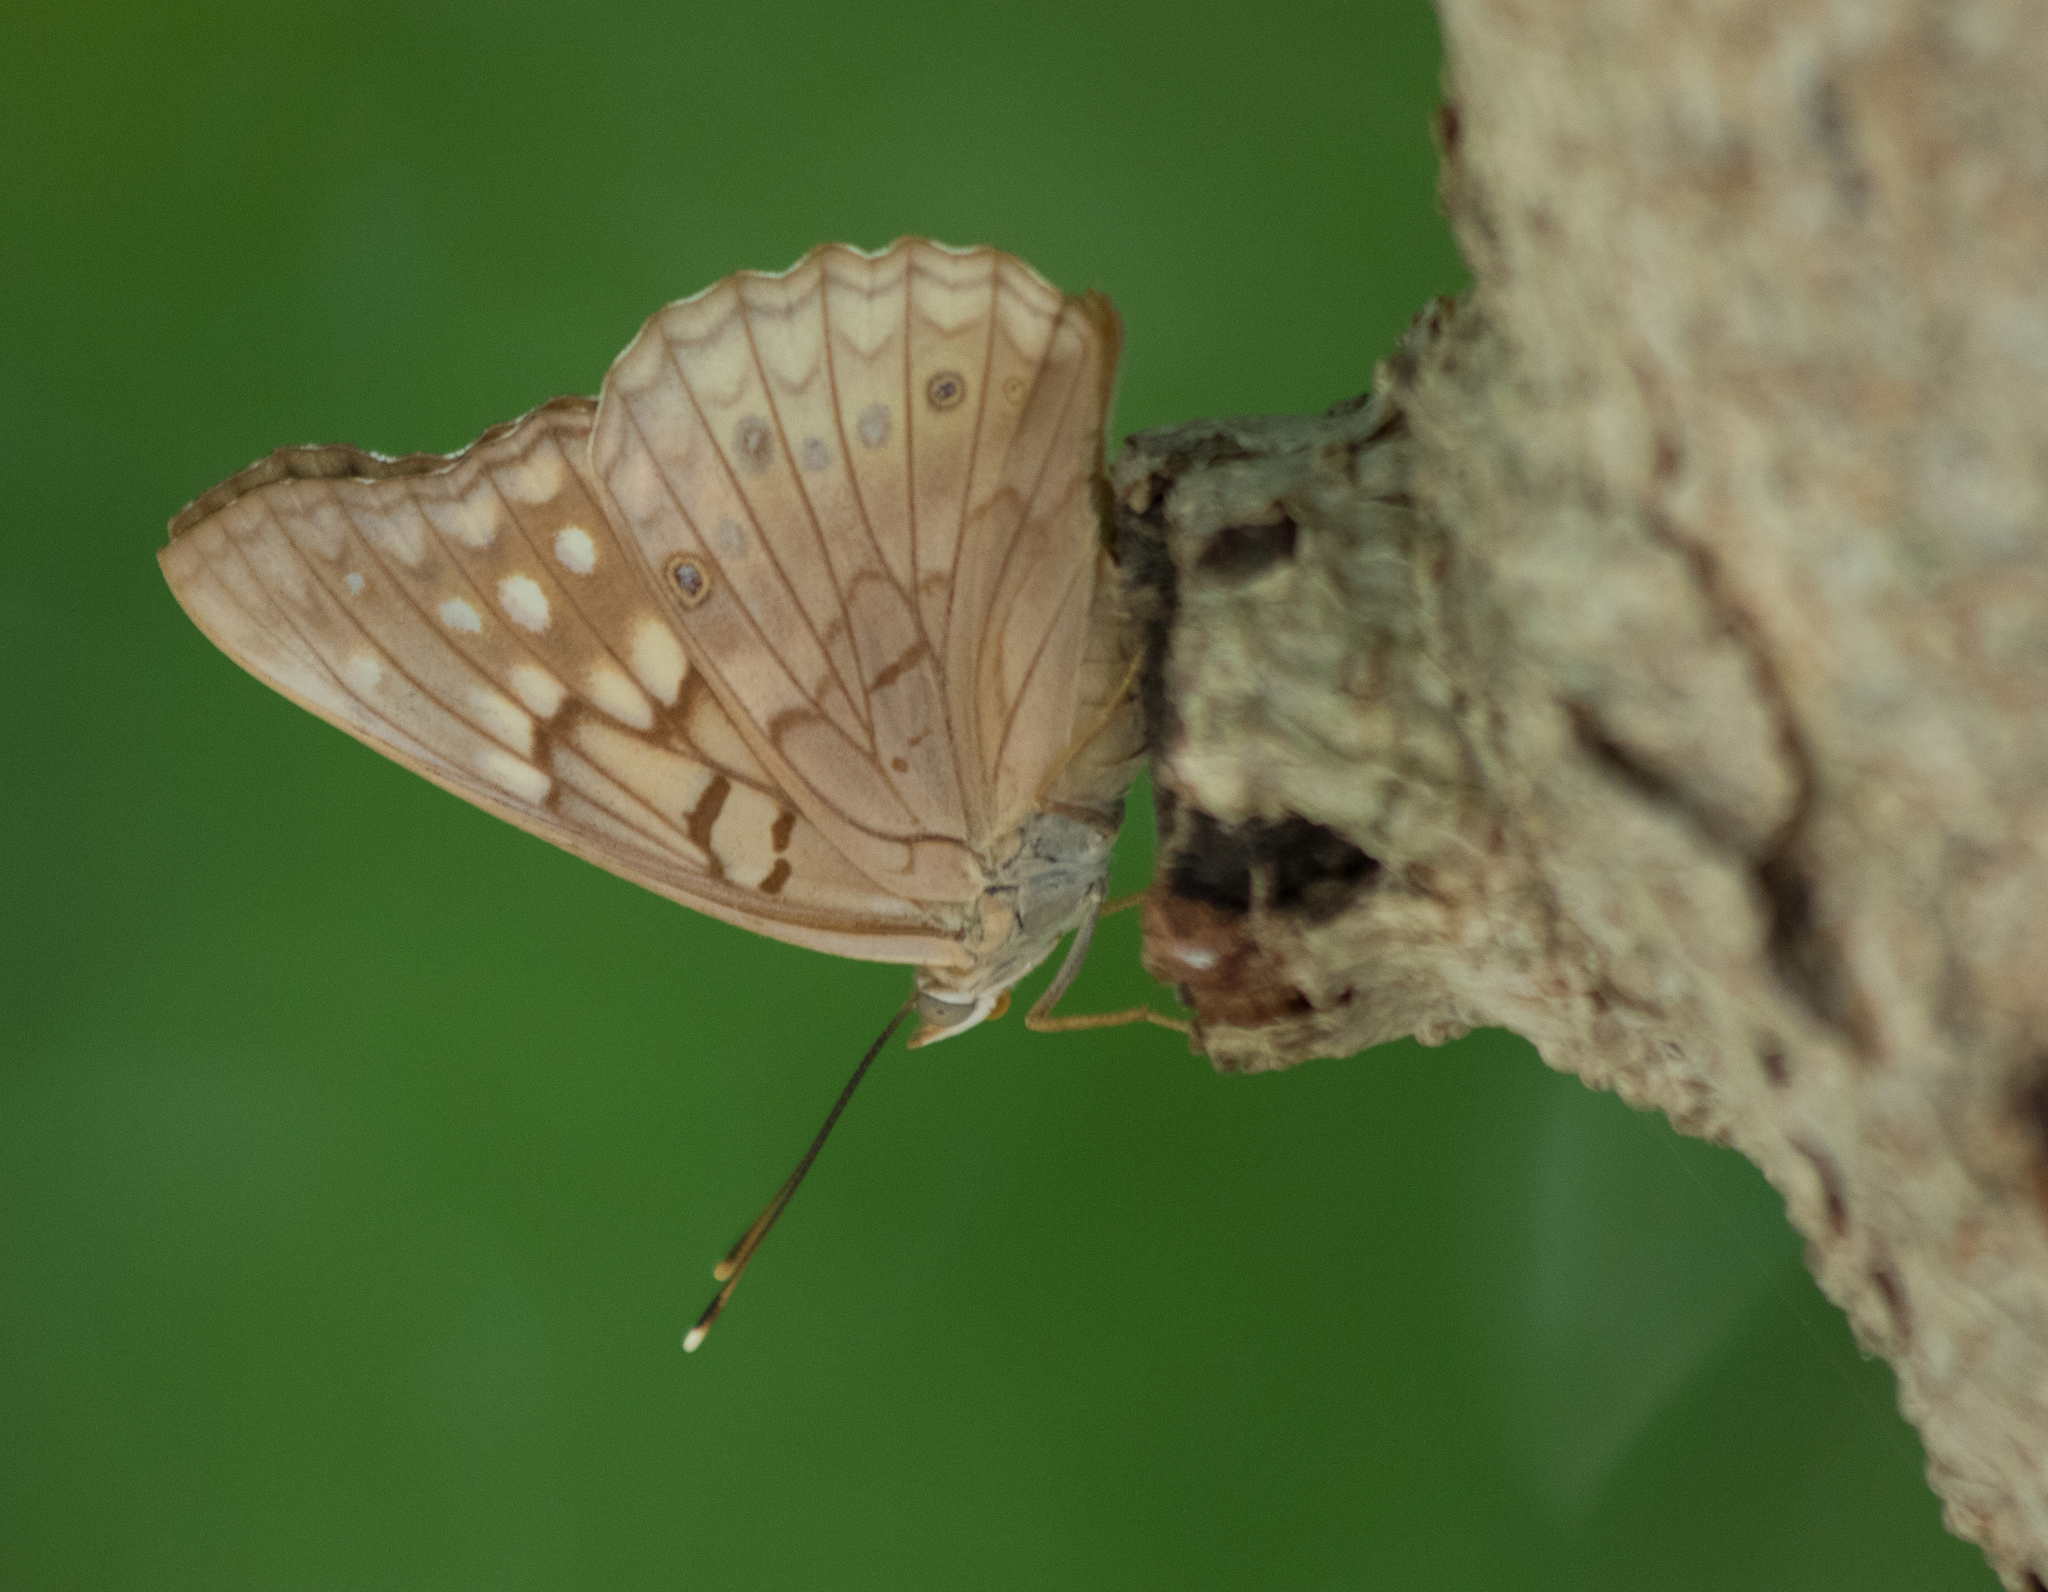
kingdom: Animalia
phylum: Arthropoda
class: Insecta
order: Lepidoptera
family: Nymphalidae
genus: Asterocampa
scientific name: Asterocampa clyton
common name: Tawny emperor
